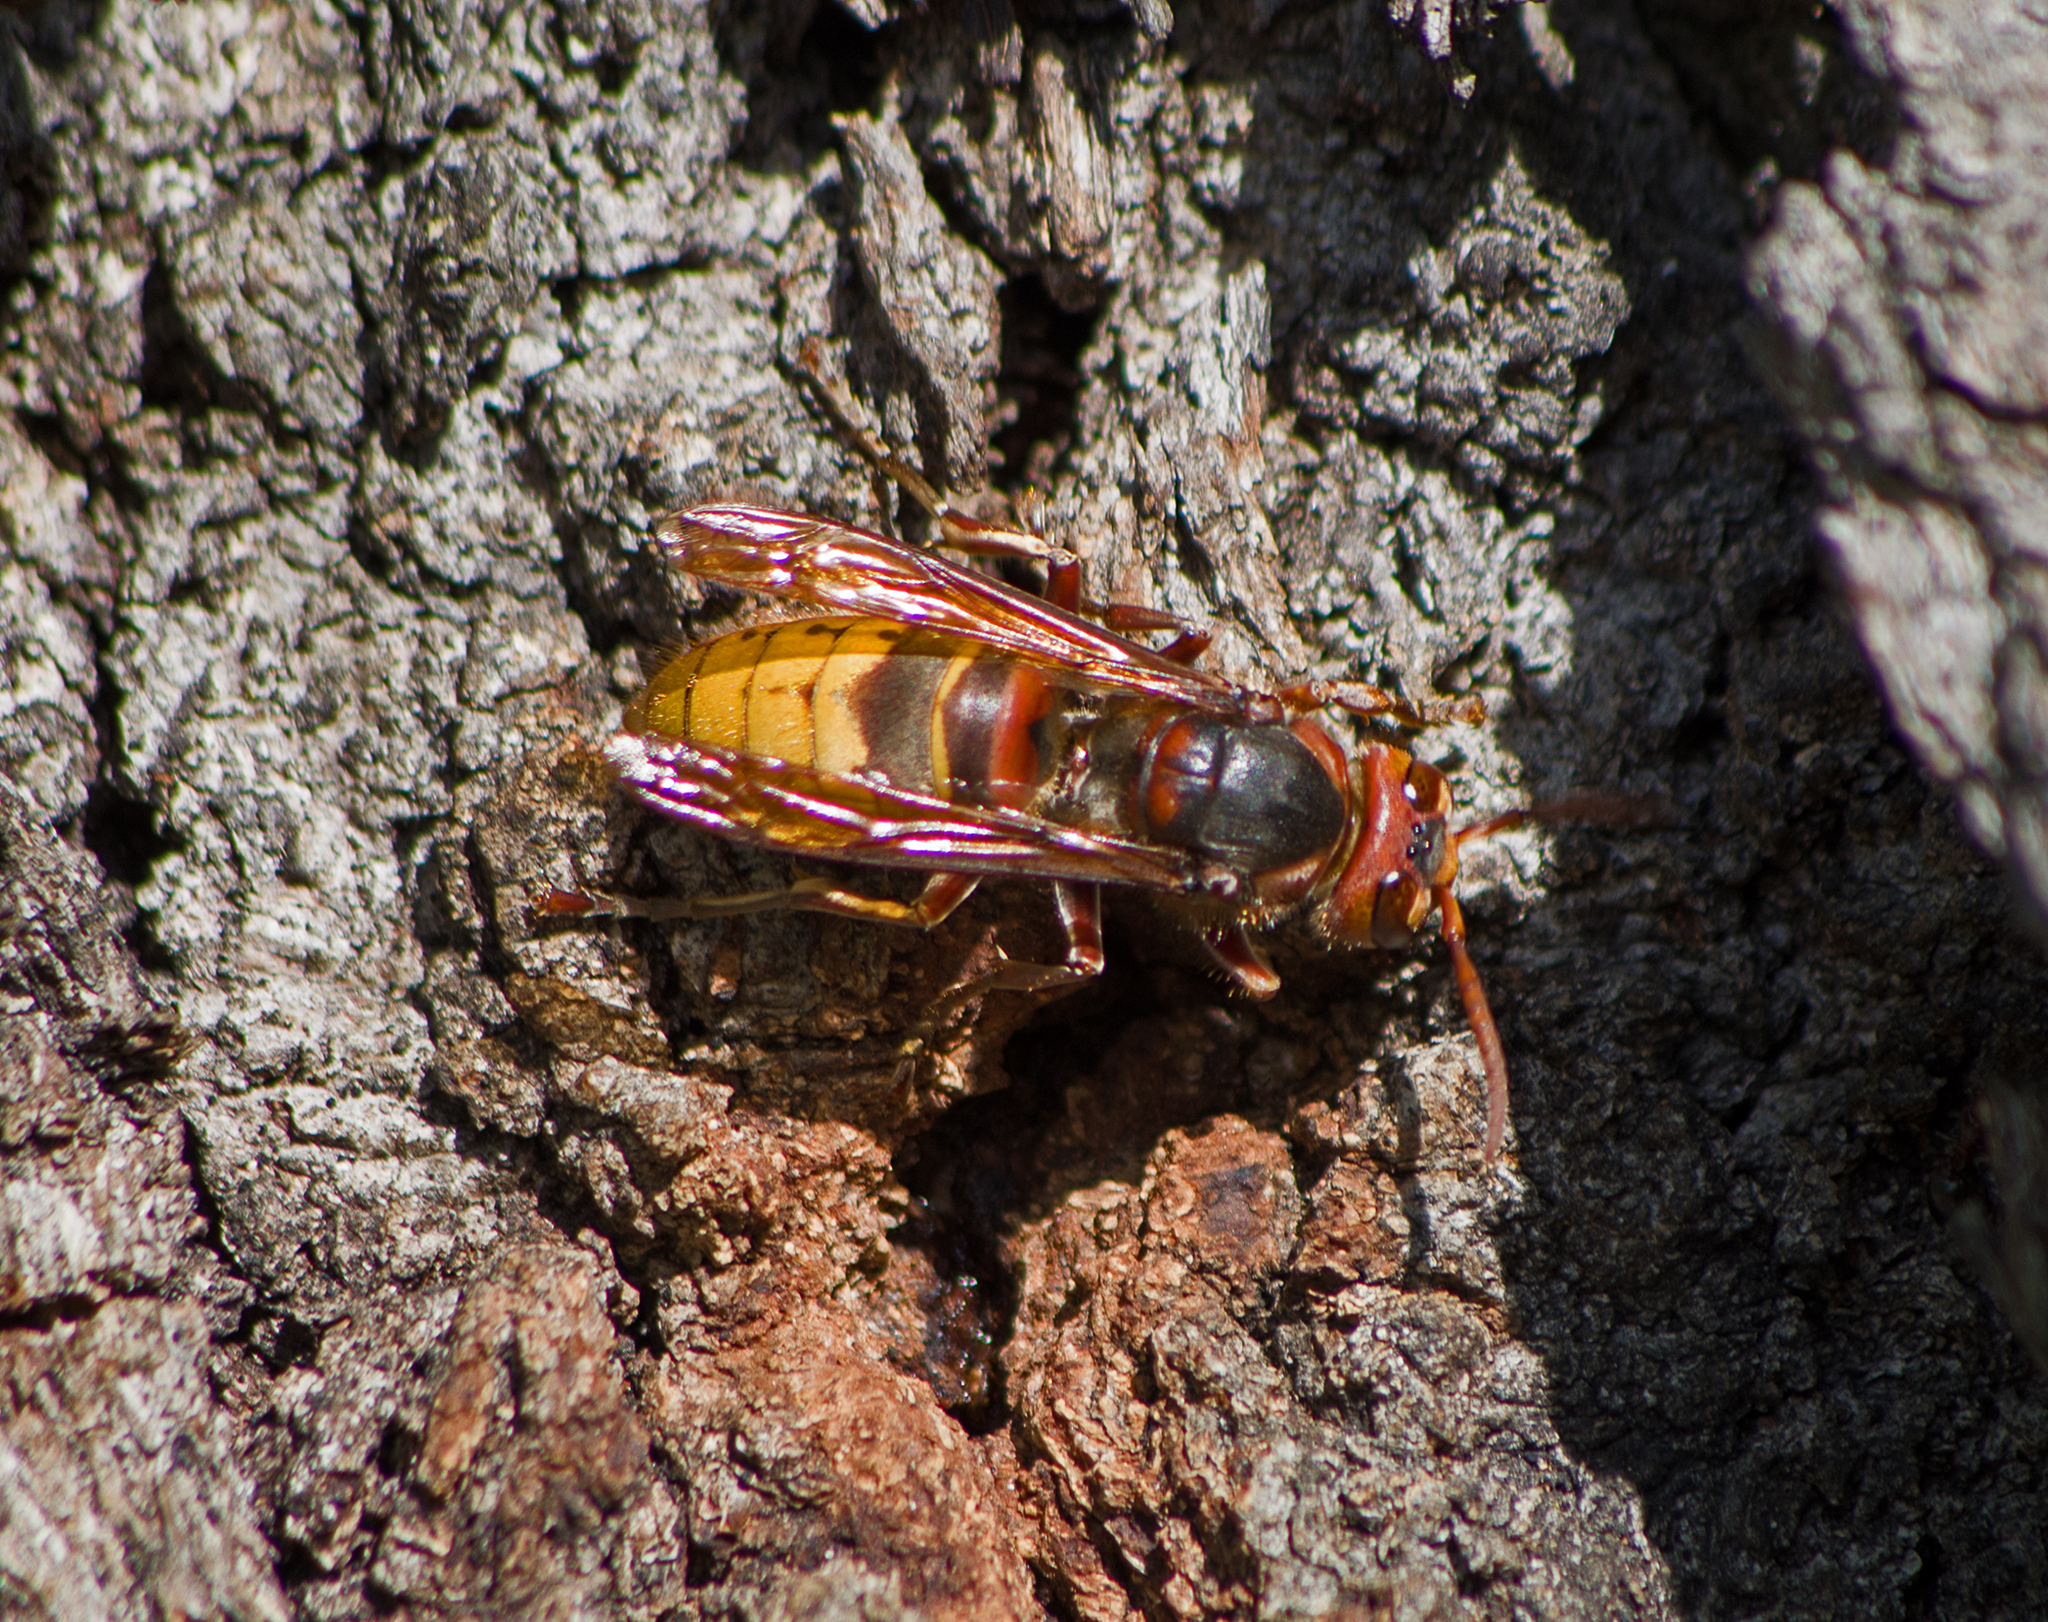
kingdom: Animalia
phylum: Arthropoda
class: Insecta
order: Hymenoptera
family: Vespidae
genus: Vespa
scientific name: Vespa crabro
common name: Hornet
